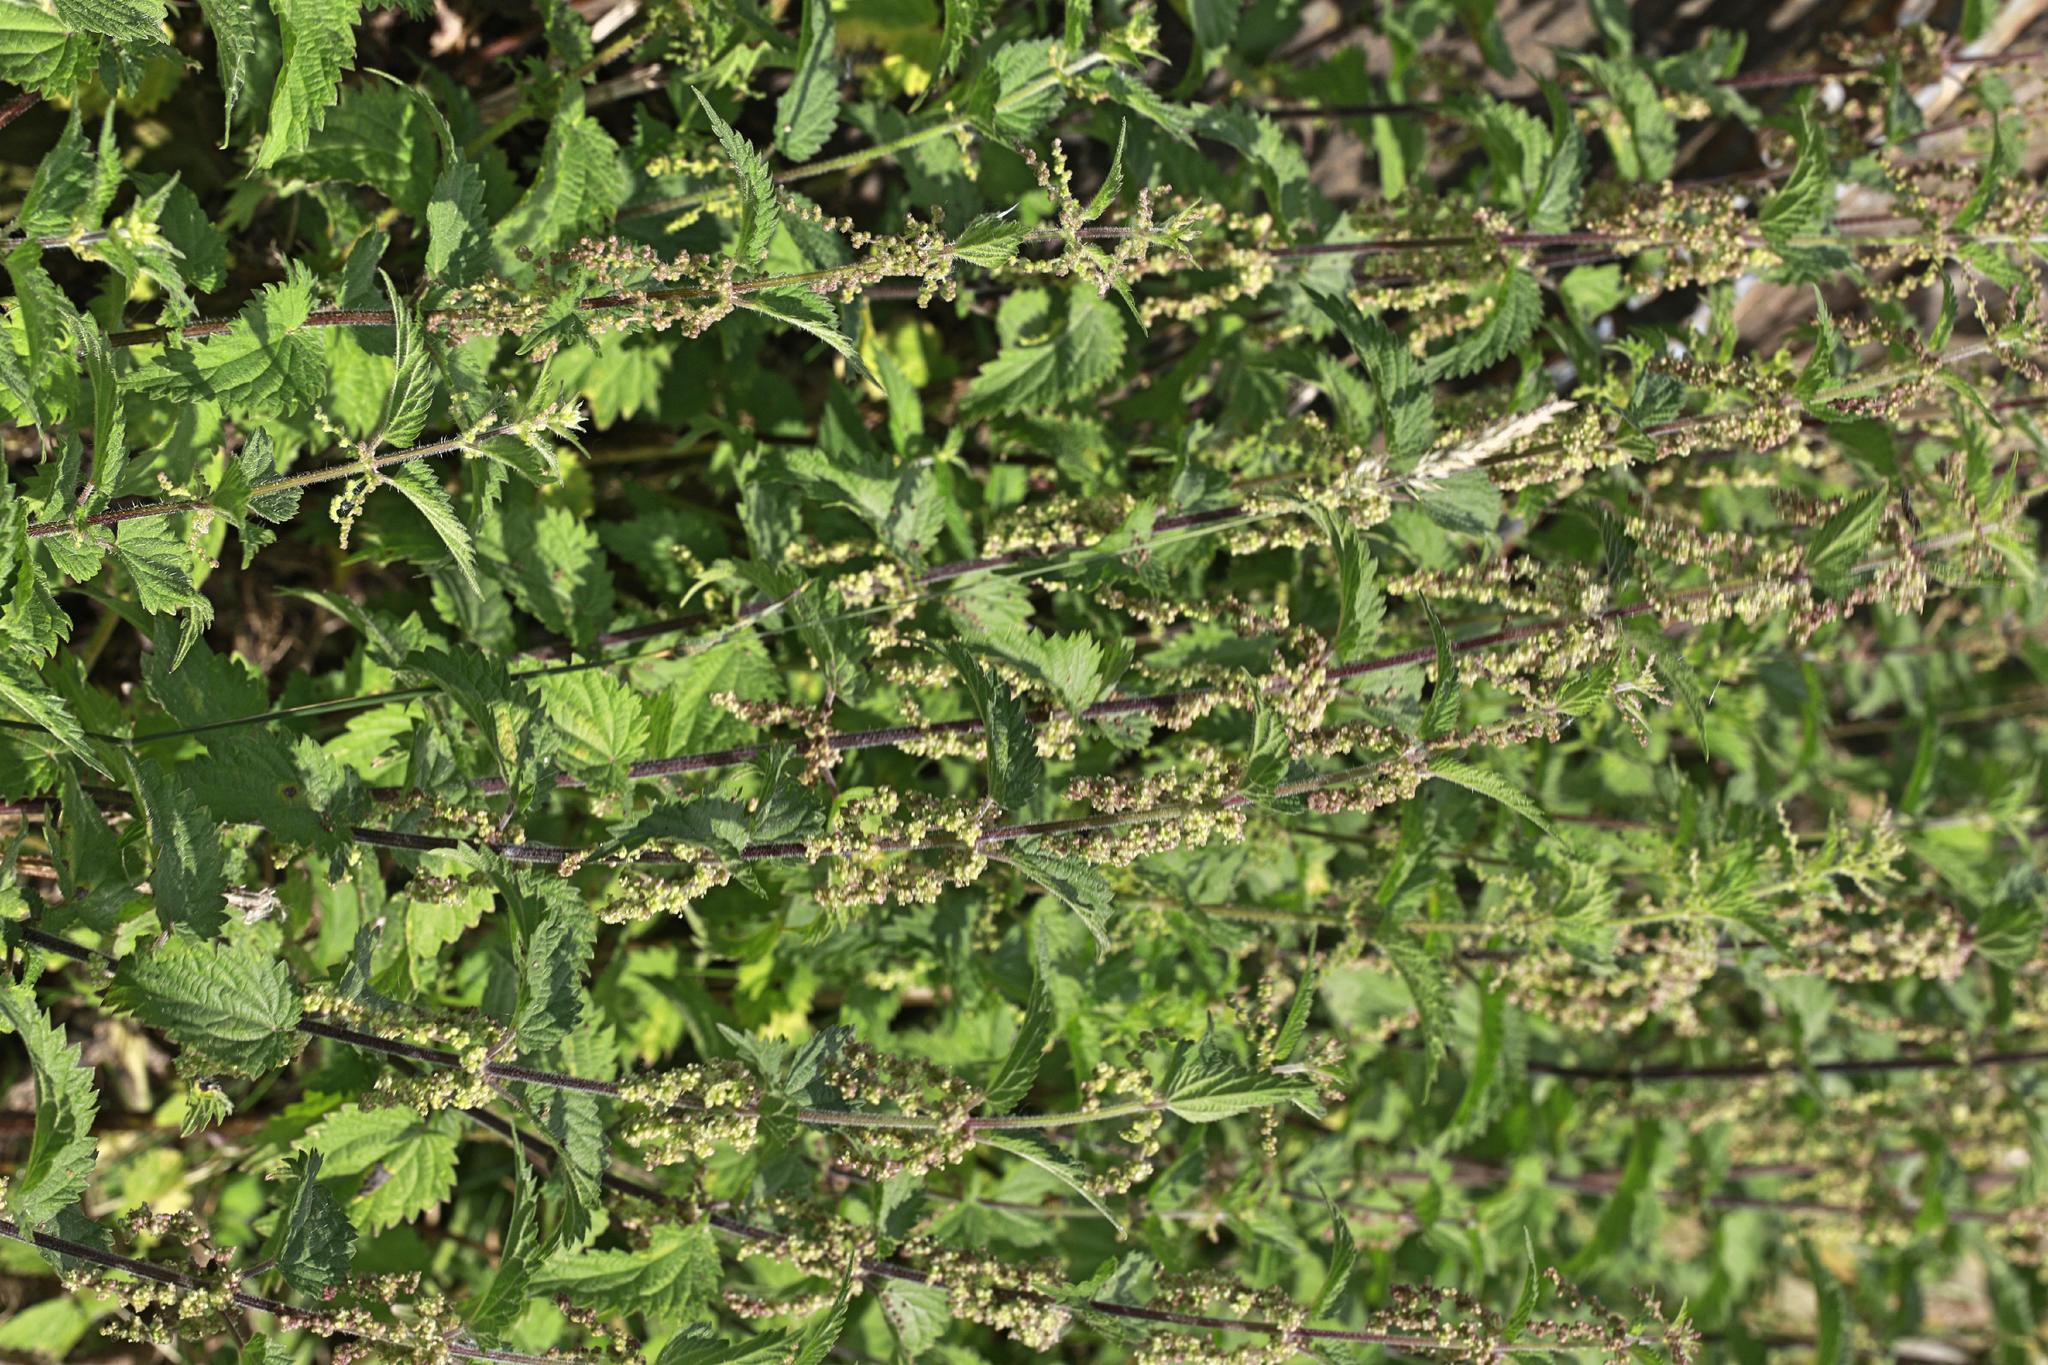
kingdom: Plantae
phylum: Tracheophyta
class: Magnoliopsida
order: Rosales
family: Urticaceae
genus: Urtica
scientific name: Urtica dioica
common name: Common nettle
